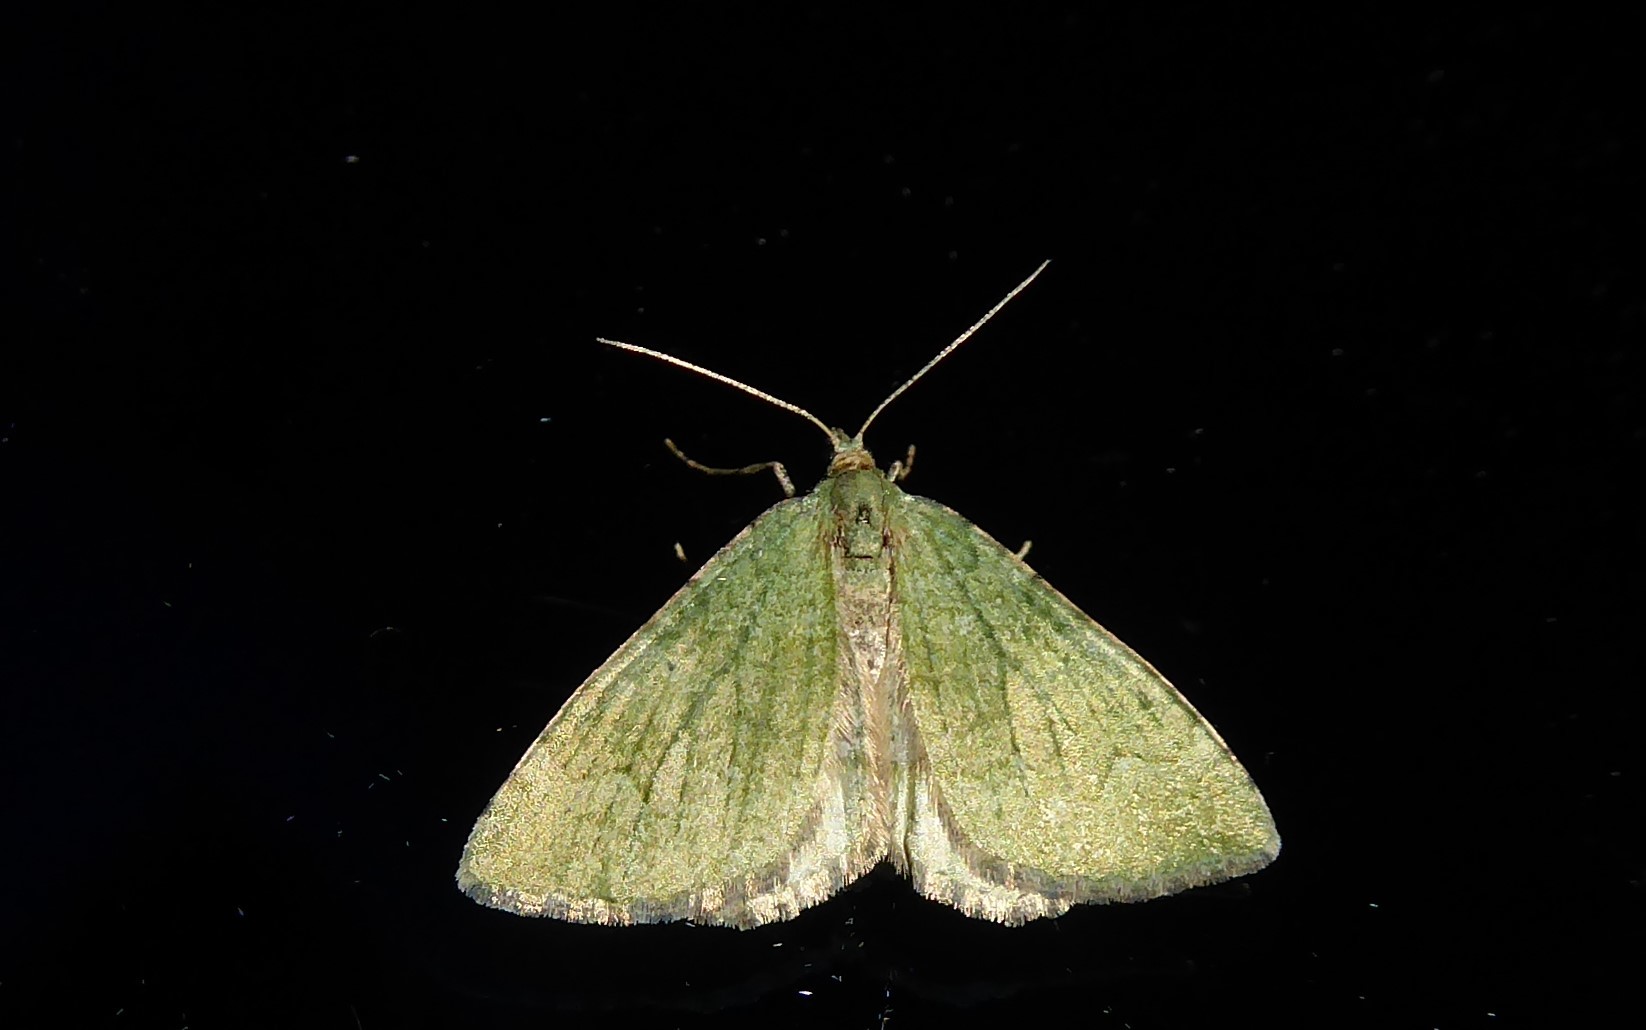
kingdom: Animalia
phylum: Arthropoda
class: Insecta
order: Lepidoptera
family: Geometridae
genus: Epyaxa
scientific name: Epyaxa rosearia
